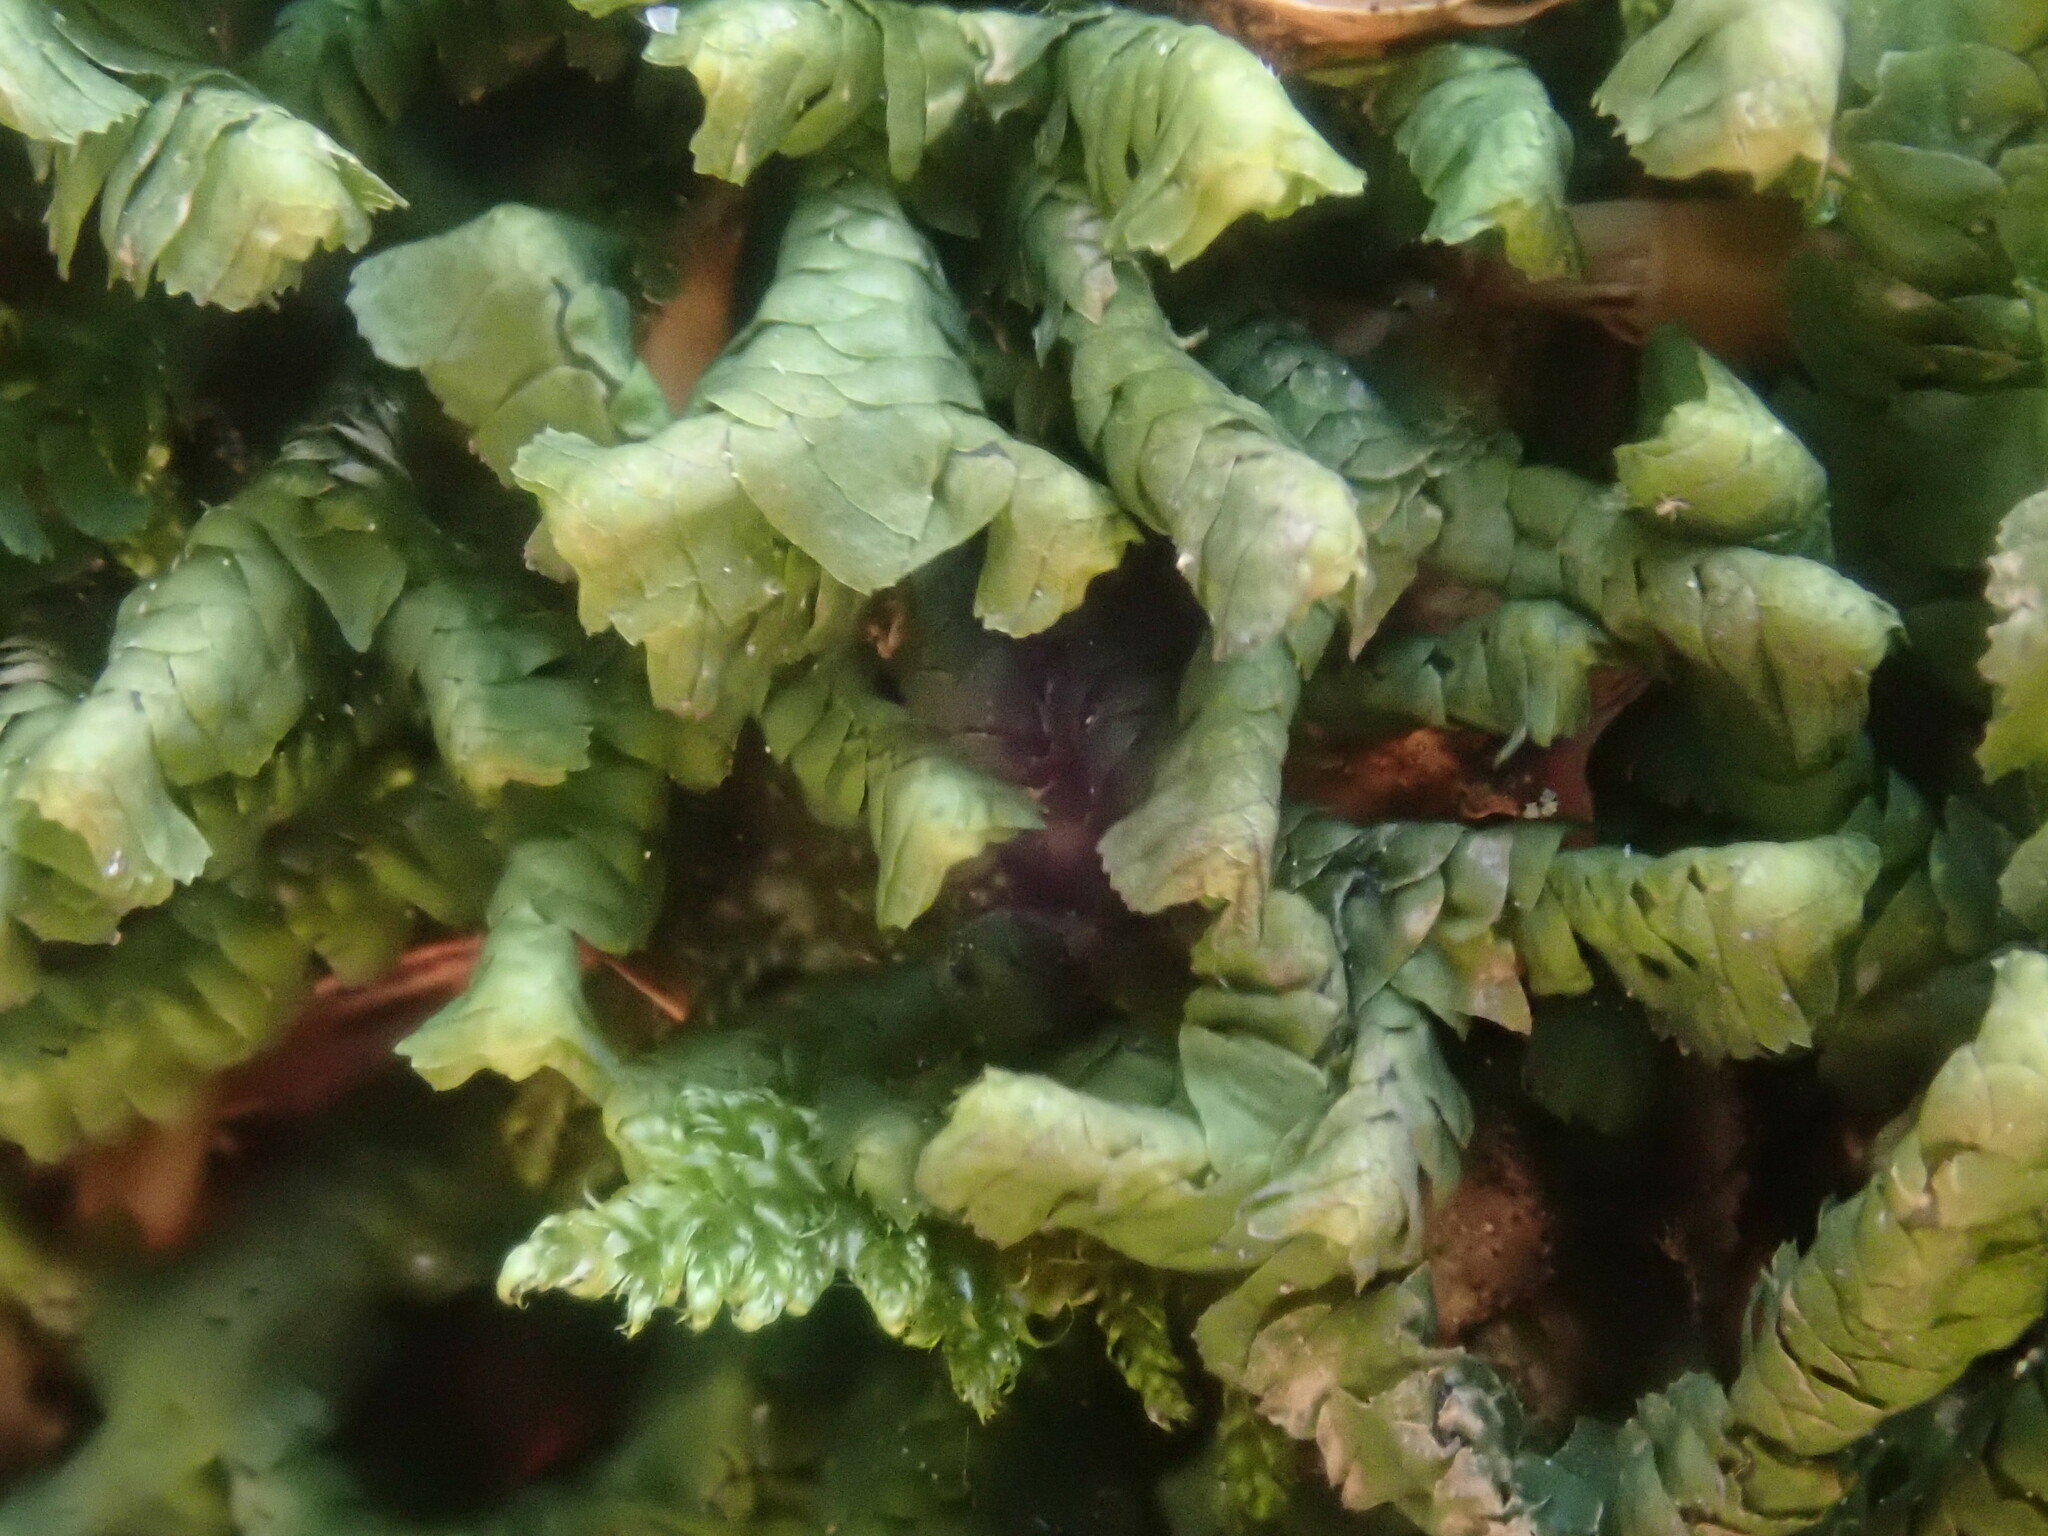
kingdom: Plantae
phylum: Marchantiophyta
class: Jungermanniopsida
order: Jungermanniales
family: Lepidoziaceae
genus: Bazzania
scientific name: Bazzania trilobata
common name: Three-lobed whipwort
